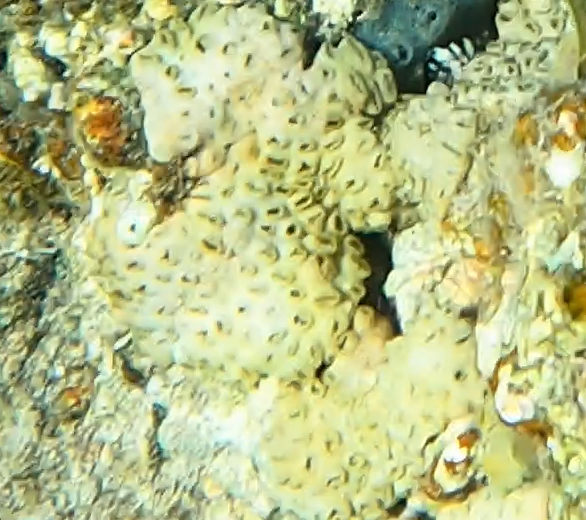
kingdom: Animalia
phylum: Cnidaria
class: Anthozoa
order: Zoantharia
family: Sphenopidae
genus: Palythoa
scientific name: Palythoa tuberculosa
